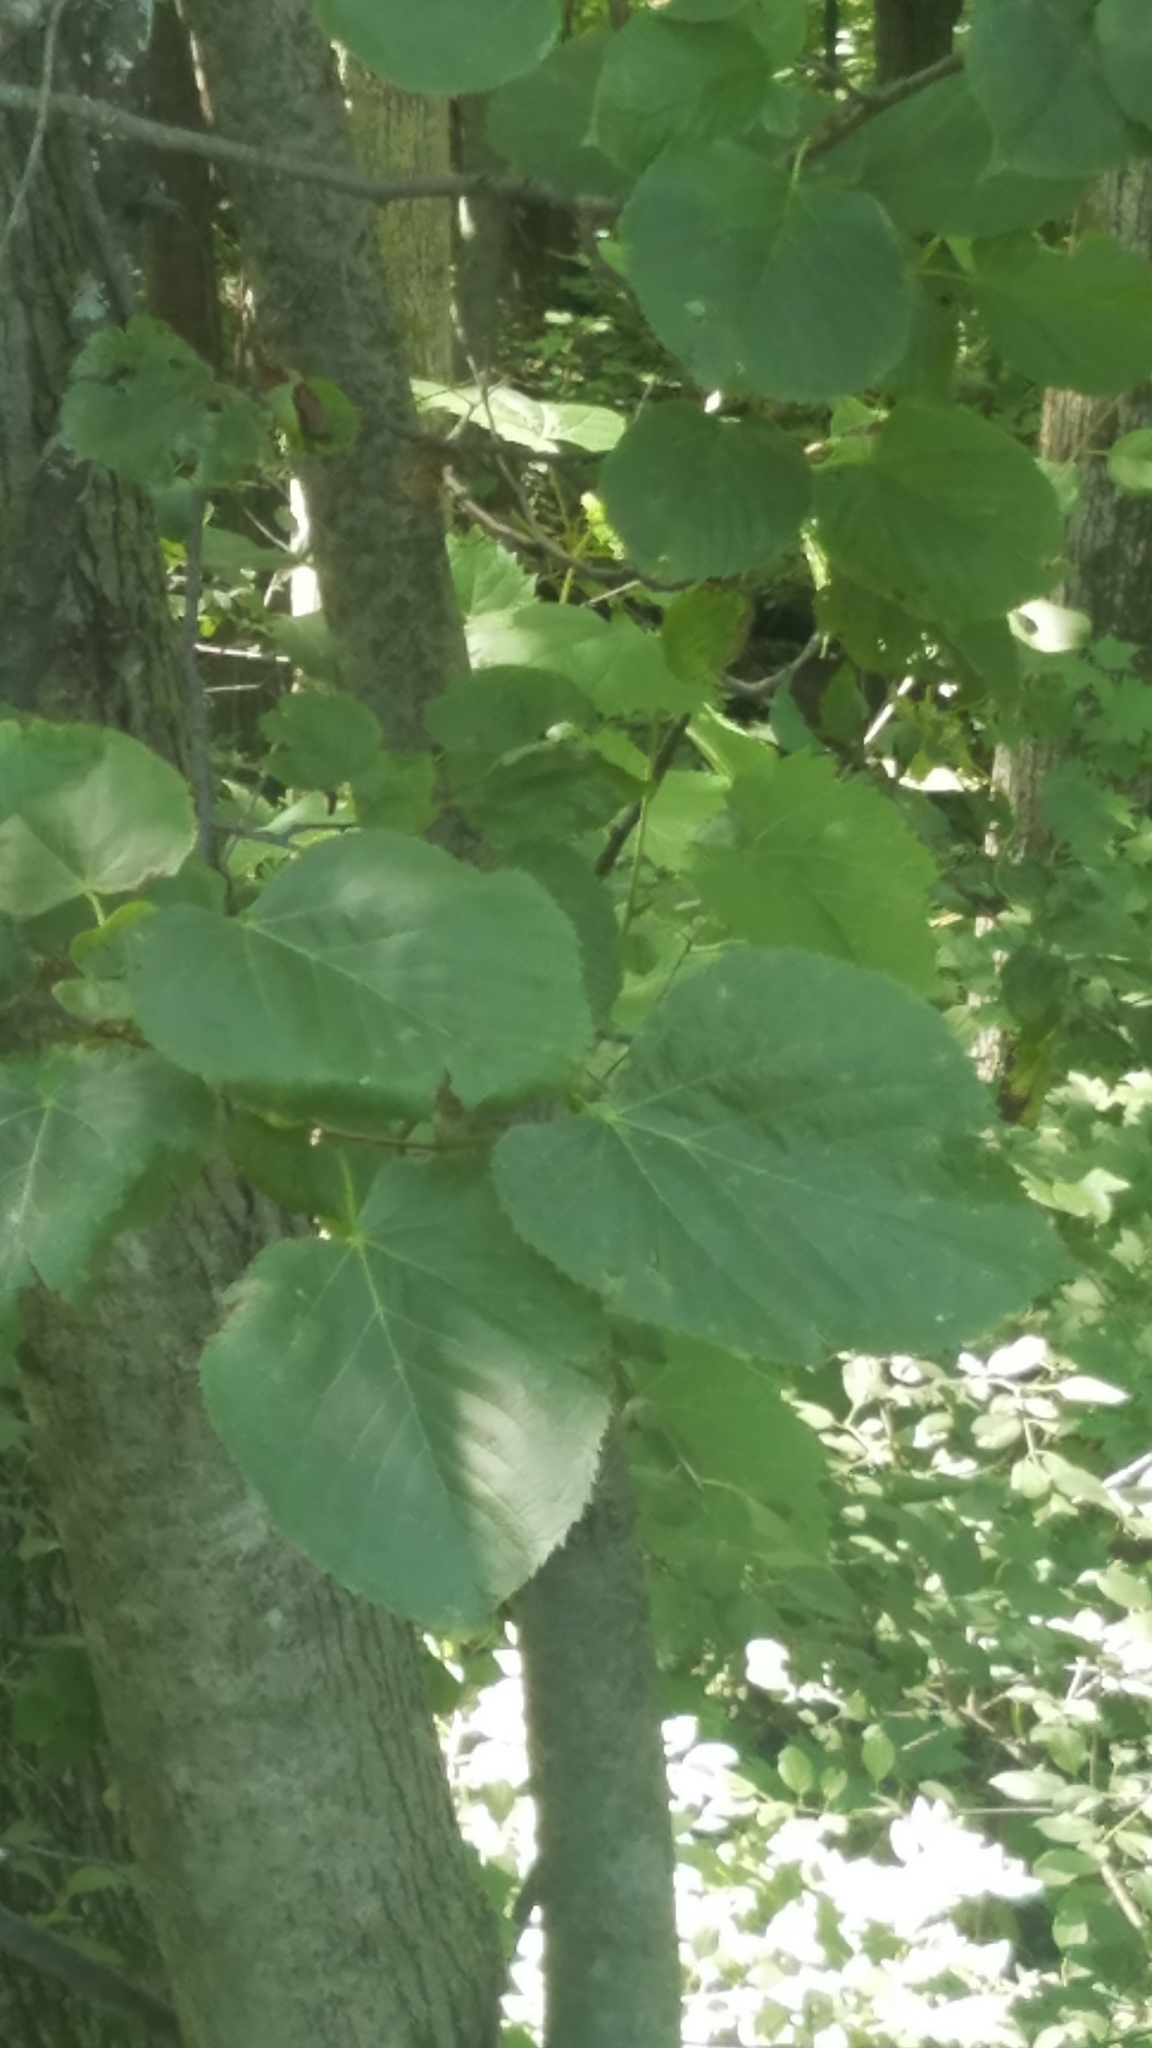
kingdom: Plantae
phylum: Tracheophyta
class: Magnoliopsida
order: Malvales
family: Malvaceae
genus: Tilia
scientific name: Tilia americana
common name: Basswood
